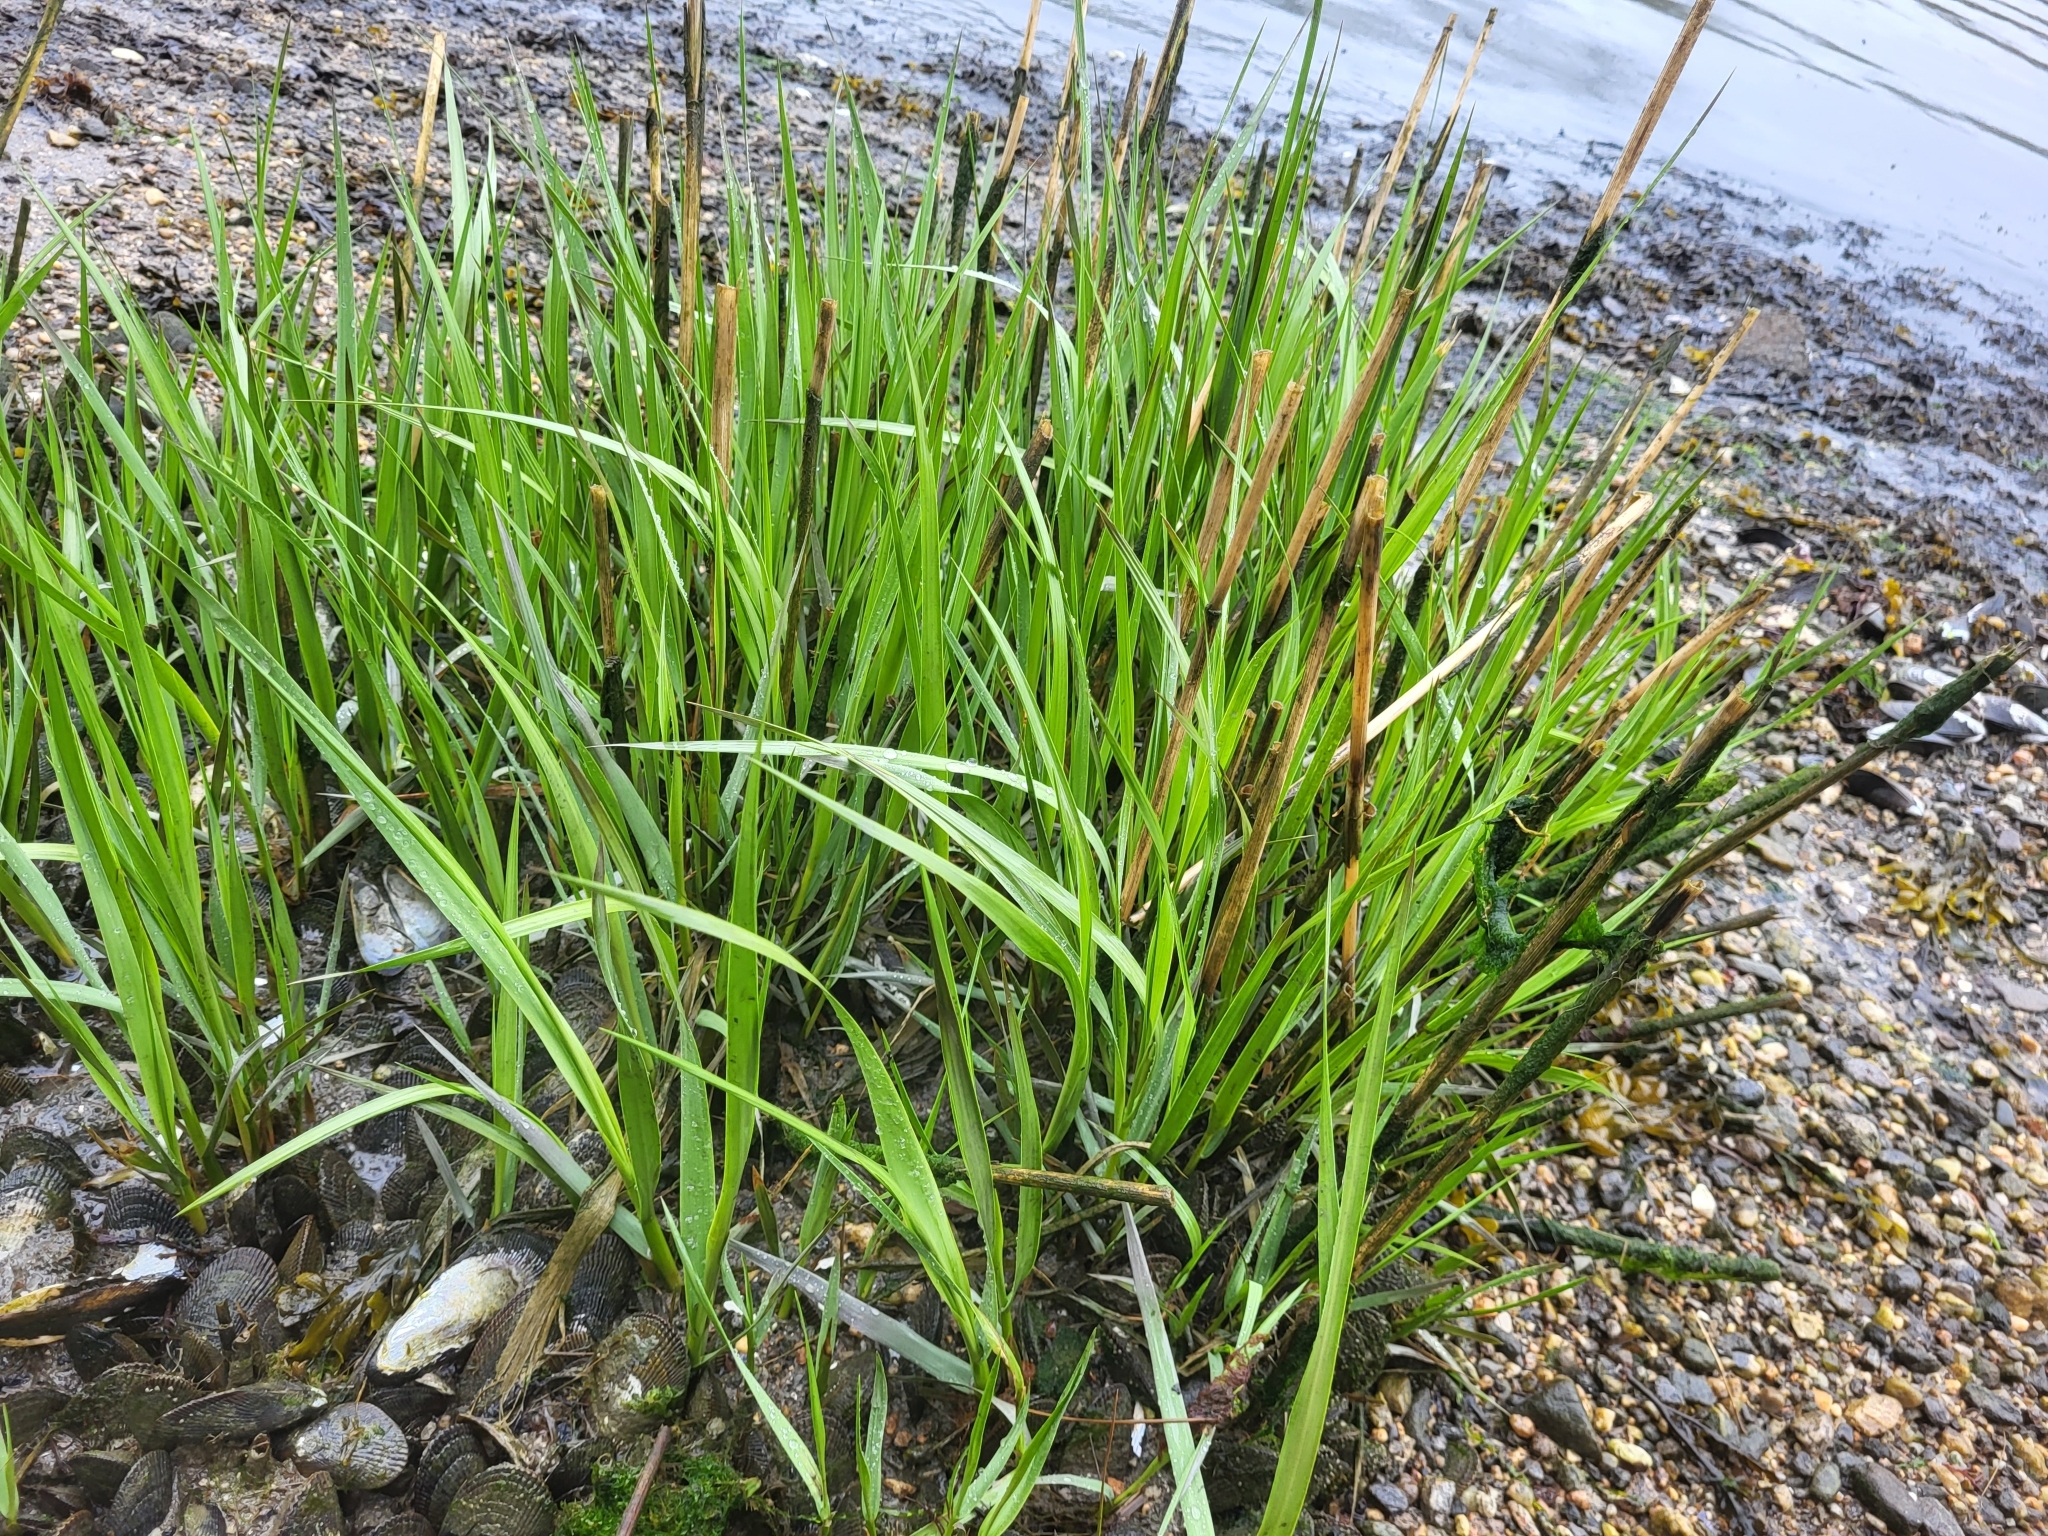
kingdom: Plantae
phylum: Tracheophyta
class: Liliopsida
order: Poales
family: Poaceae
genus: Sporobolus
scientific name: Sporobolus alterniflorus
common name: Atlantic cordgrass
